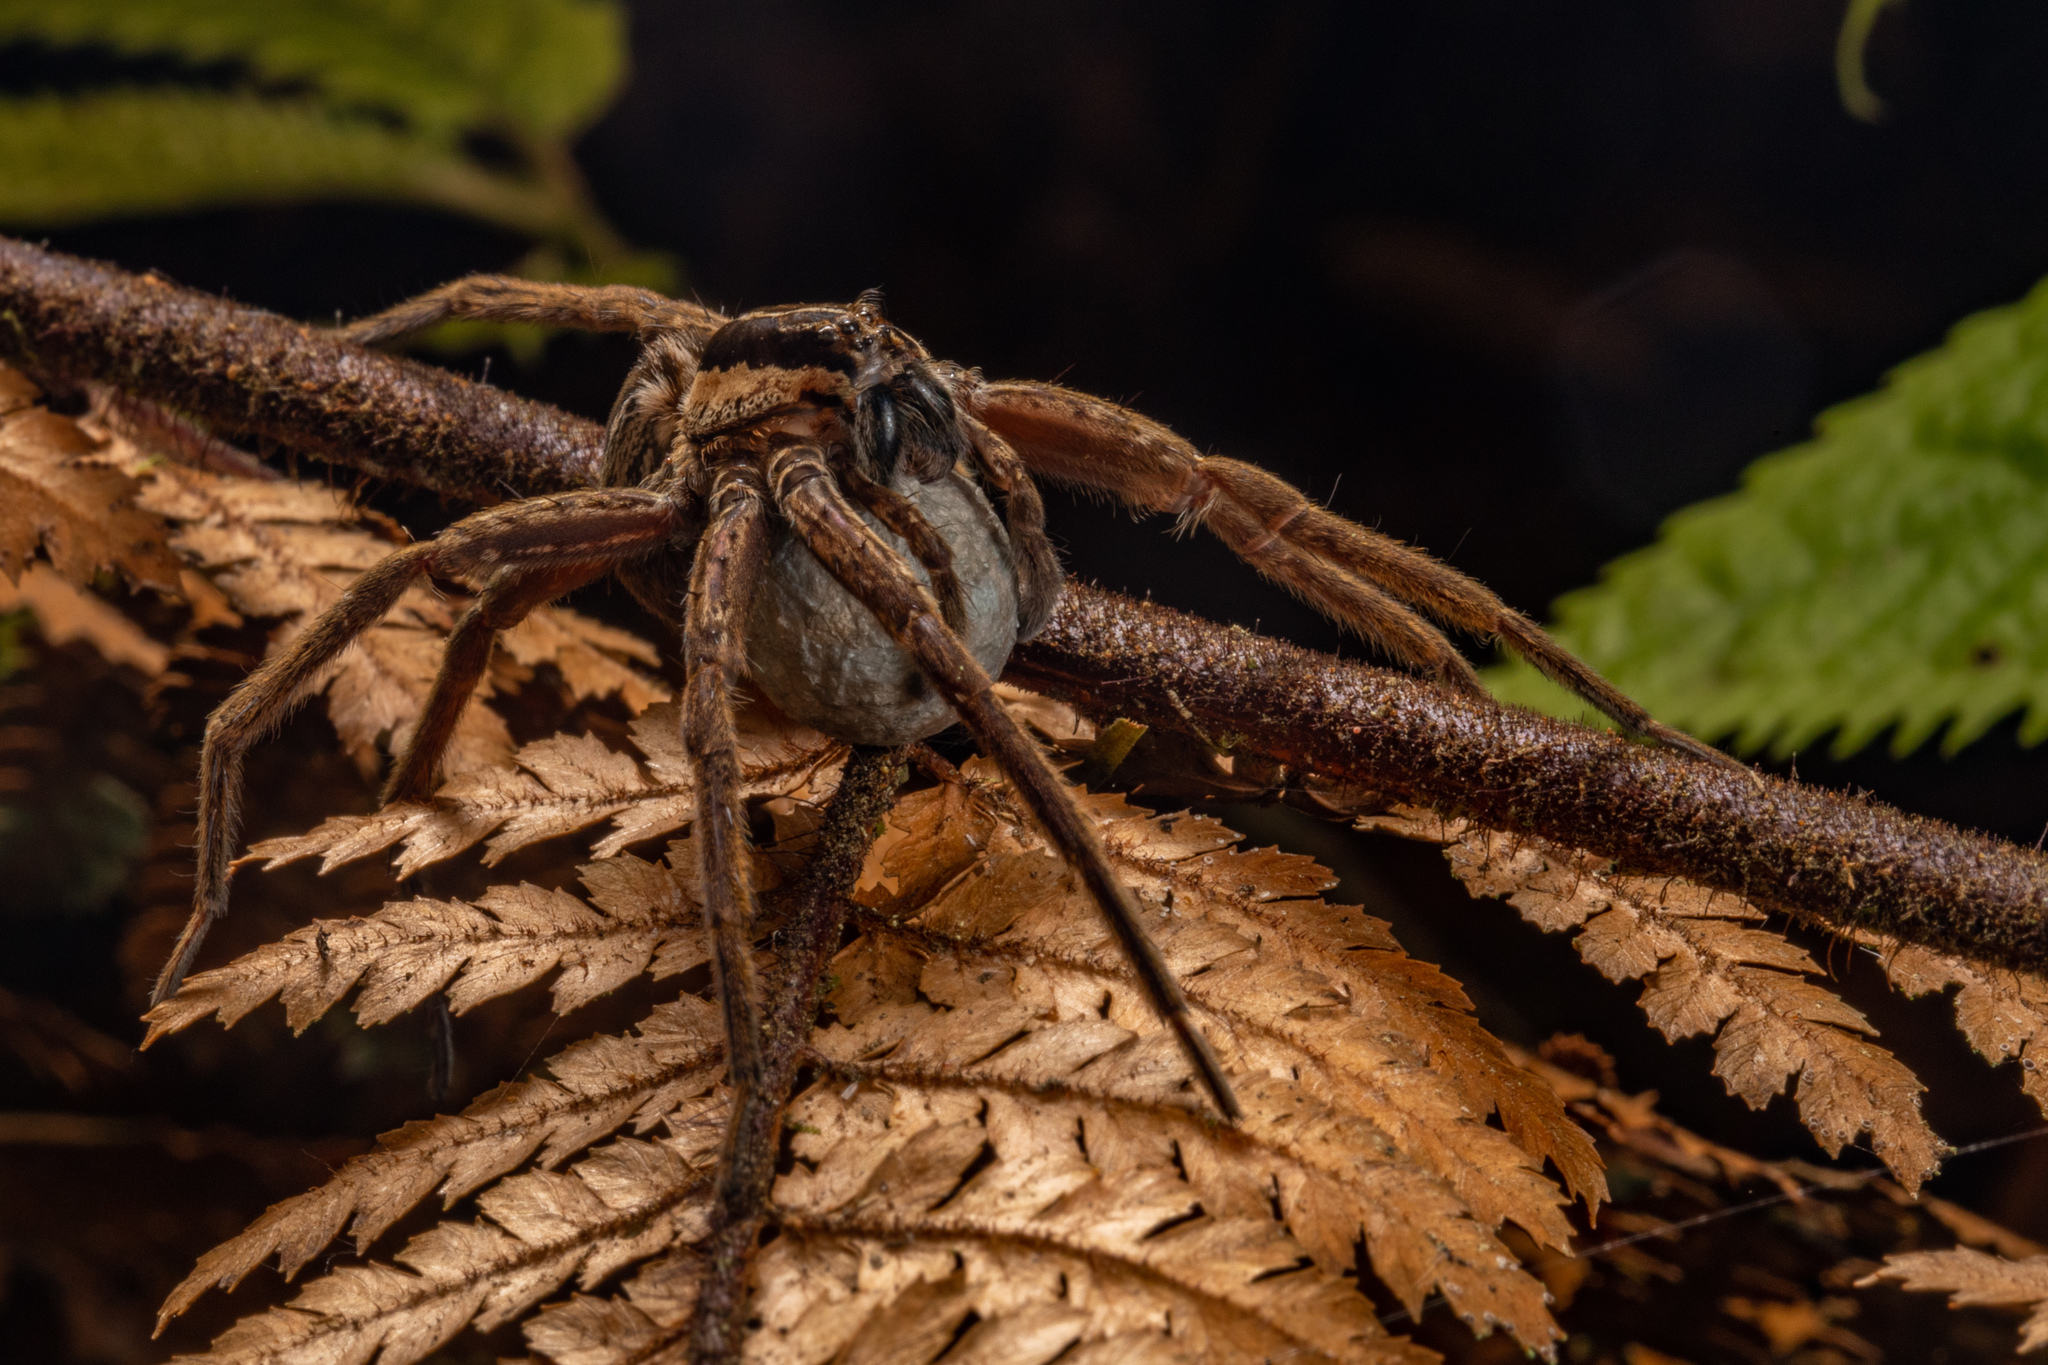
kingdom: Animalia
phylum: Arthropoda
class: Arachnida
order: Araneae
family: Pisauridae
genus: Dolomedes
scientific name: Dolomedes minor
